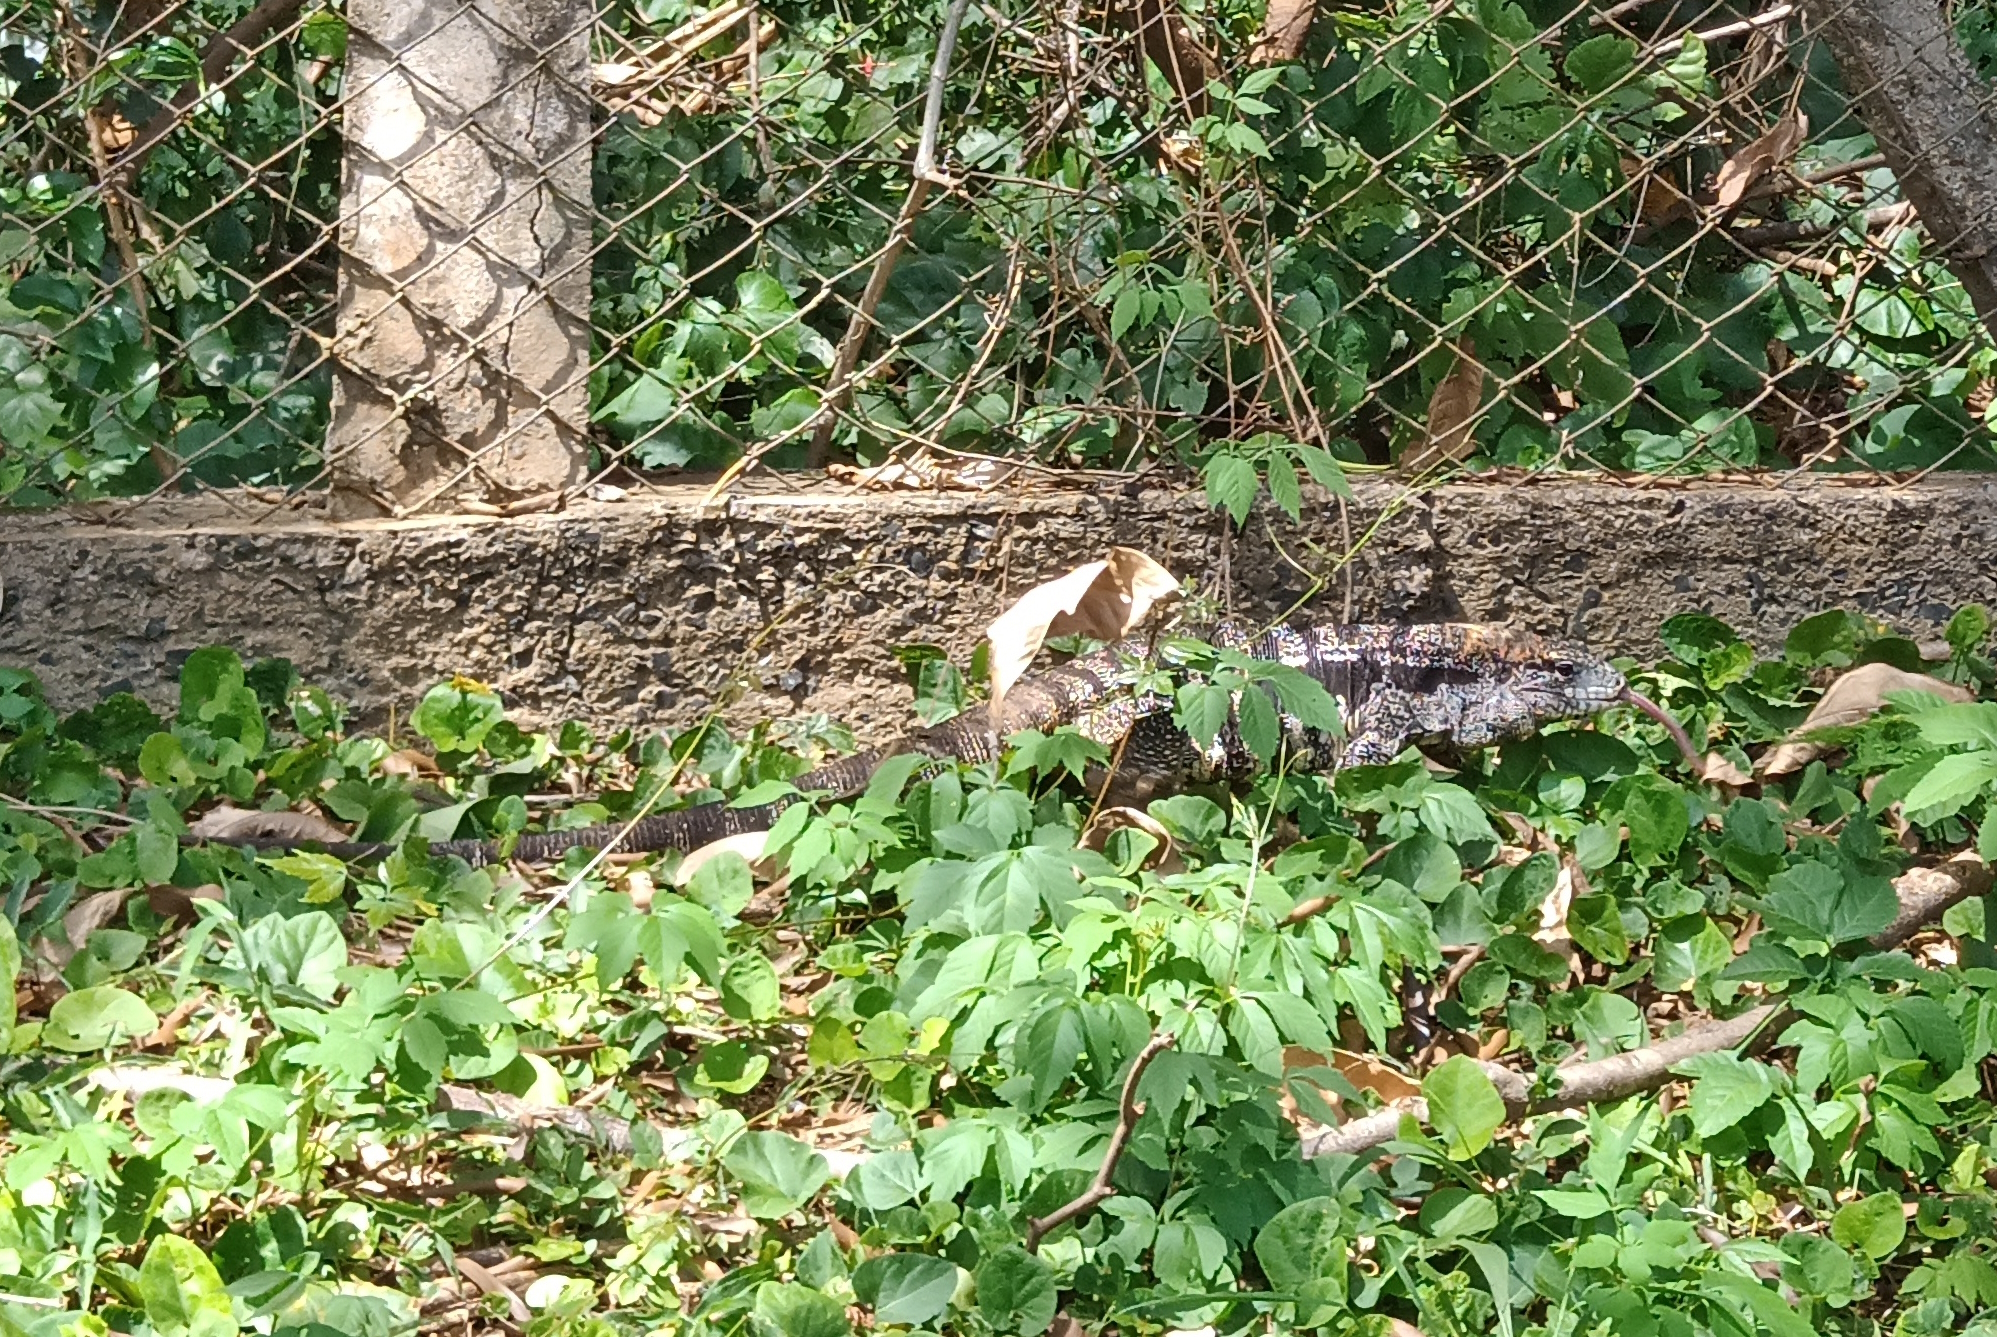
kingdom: Animalia
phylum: Chordata
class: Squamata
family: Teiidae
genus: Salvator
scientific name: Salvator merianae
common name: Argentine black and white tegu
